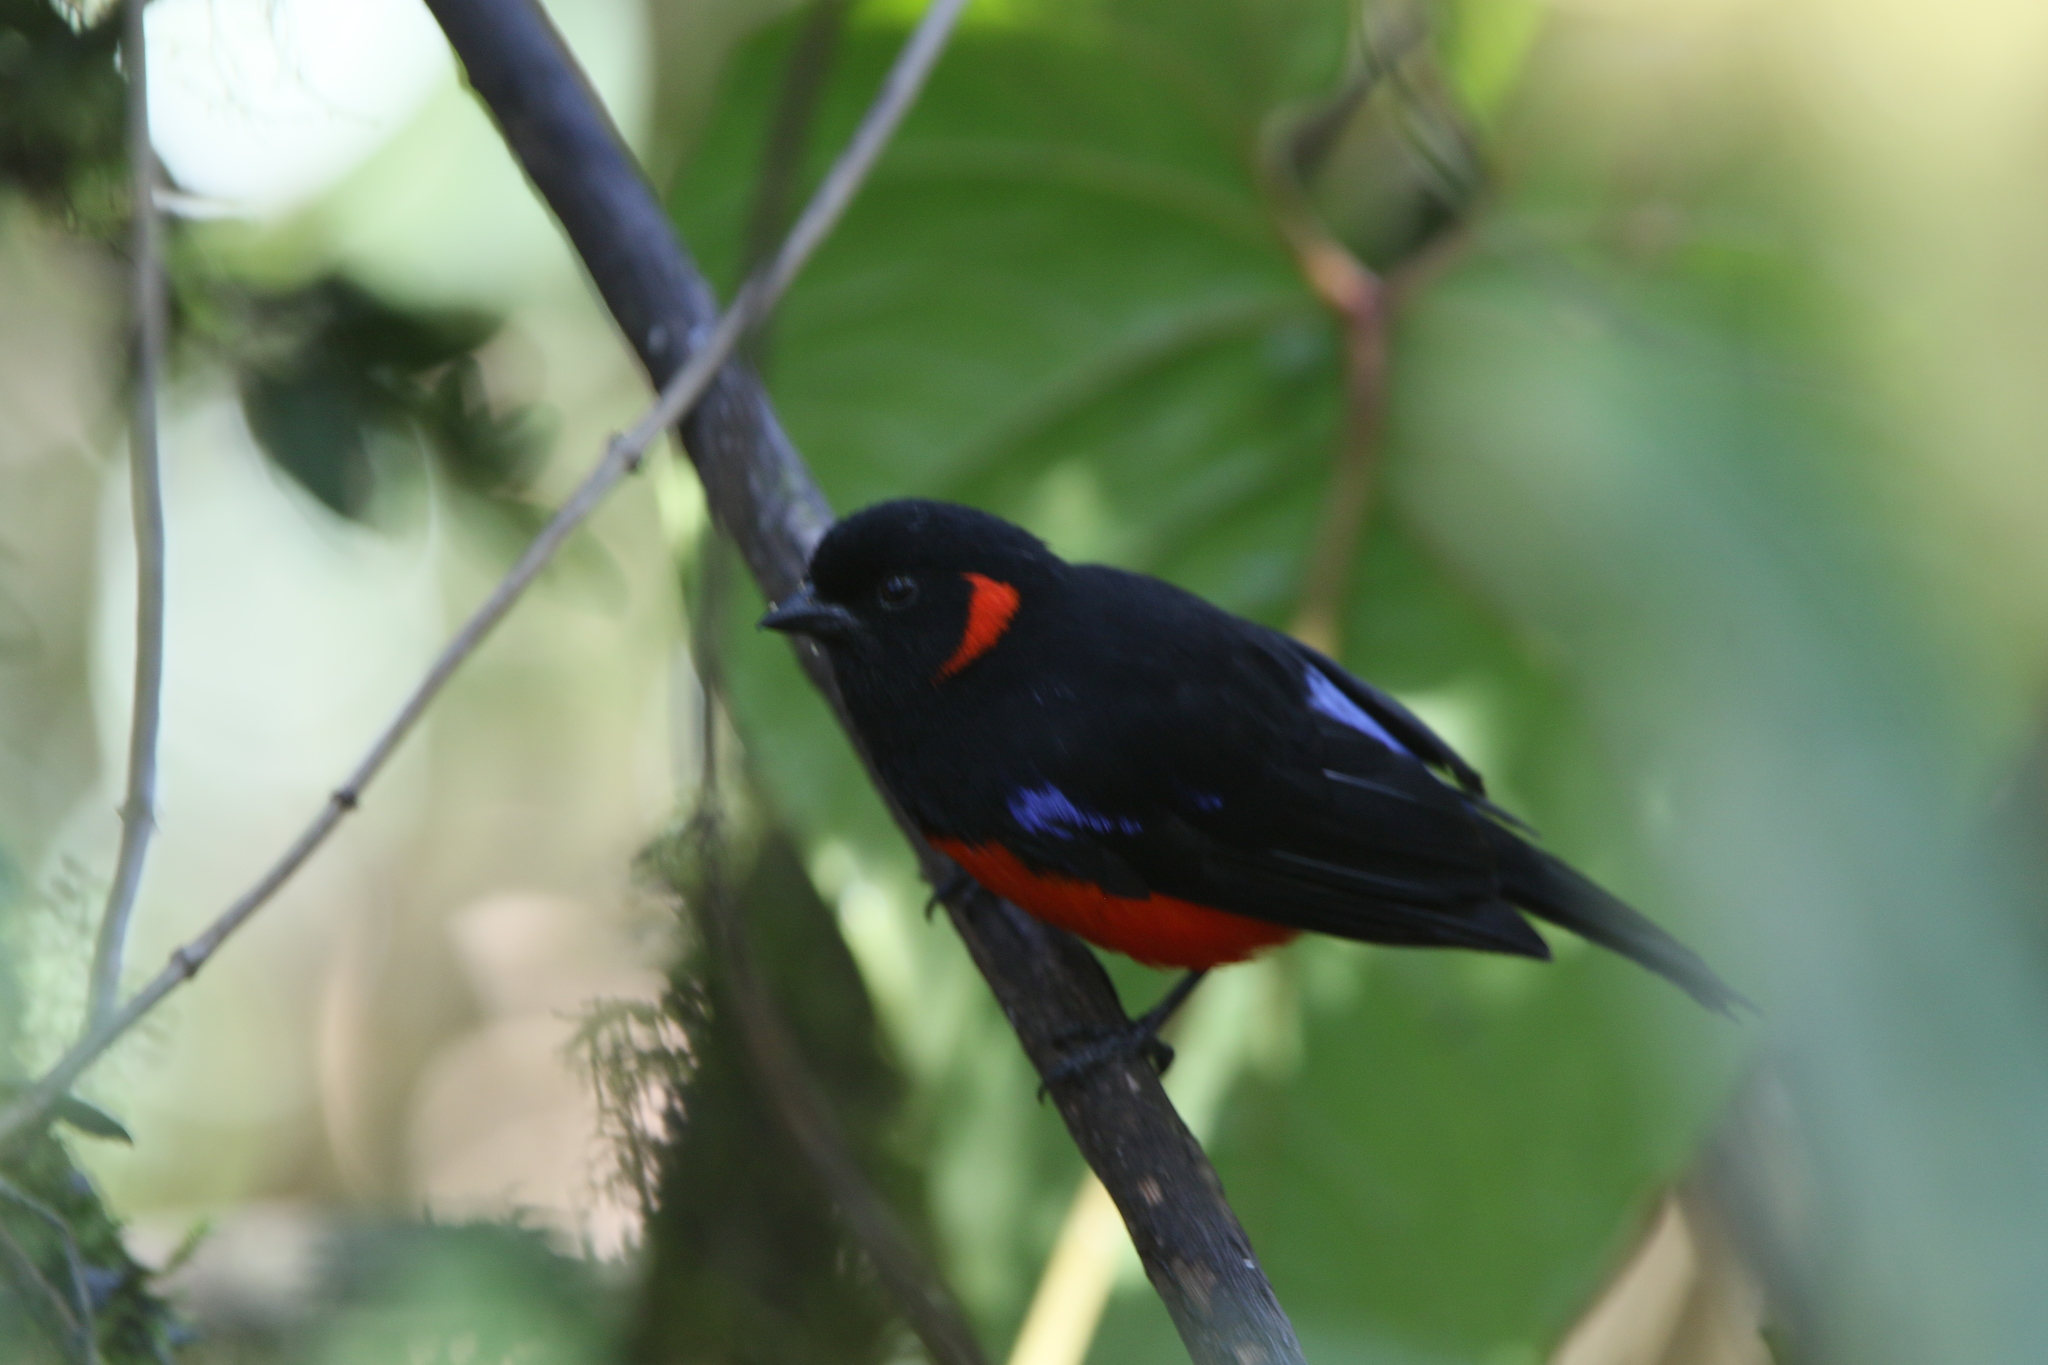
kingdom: Animalia
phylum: Chordata
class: Aves
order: Passeriformes
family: Thraupidae
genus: Anisognathus
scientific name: Anisognathus igniventris
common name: Scarlet-bellied mountain tanager
